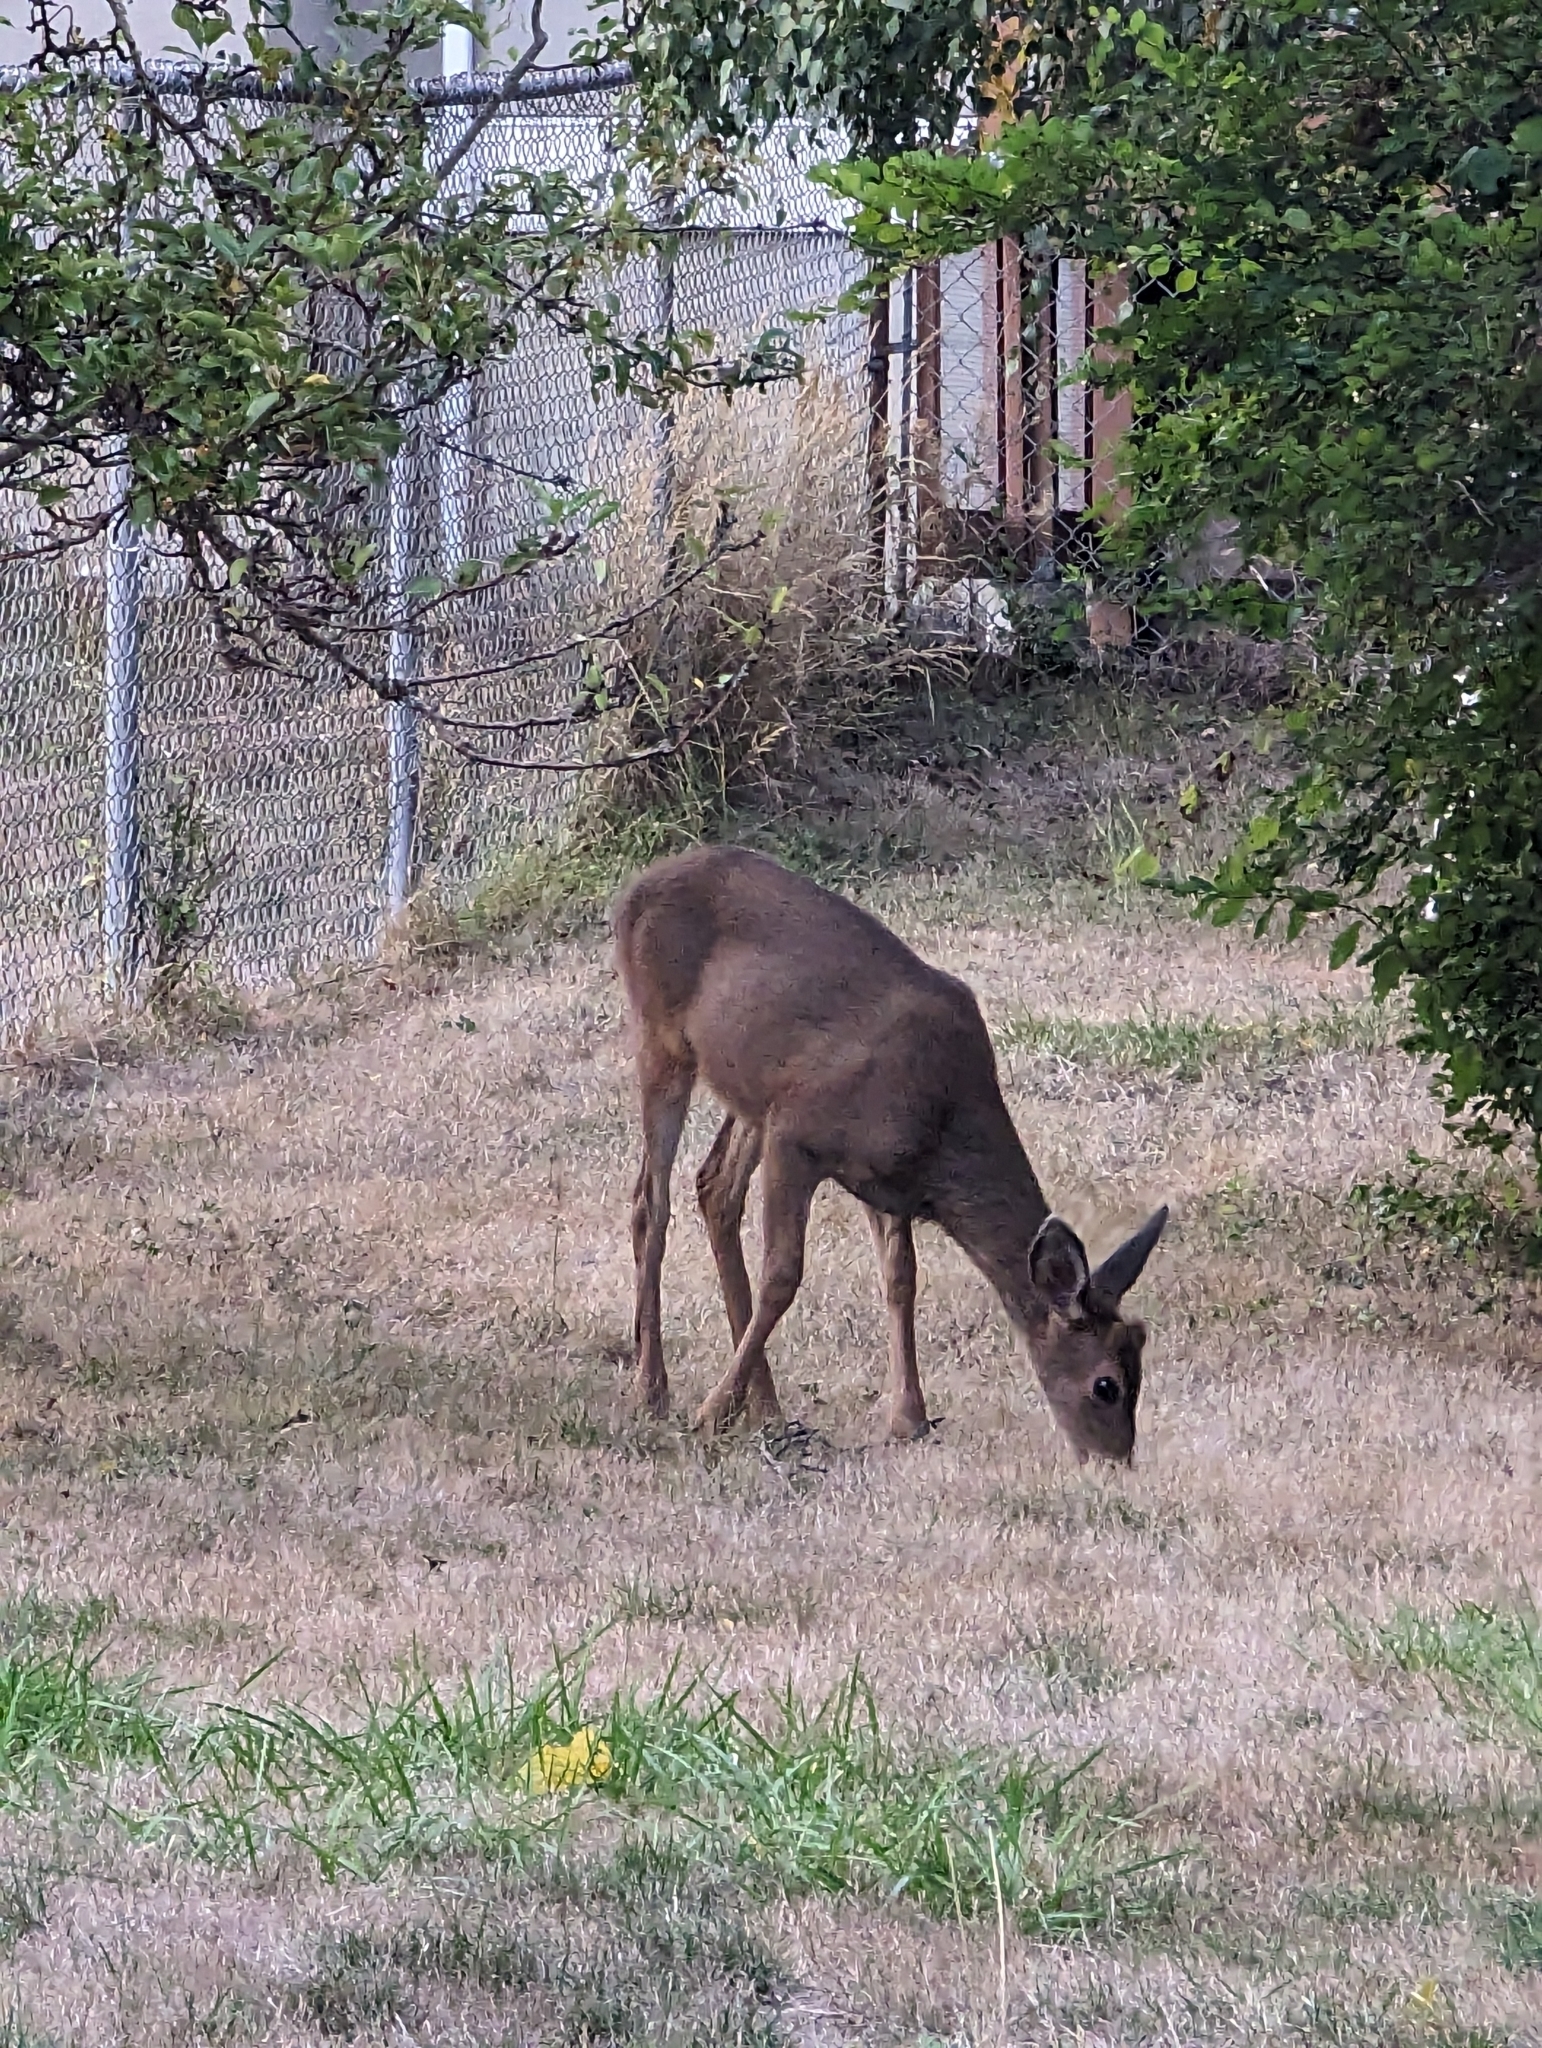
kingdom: Animalia
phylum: Chordata
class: Mammalia
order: Artiodactyla
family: Cervidae
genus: Odocoileus
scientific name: Odocoileus hemionus
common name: Mule deer
